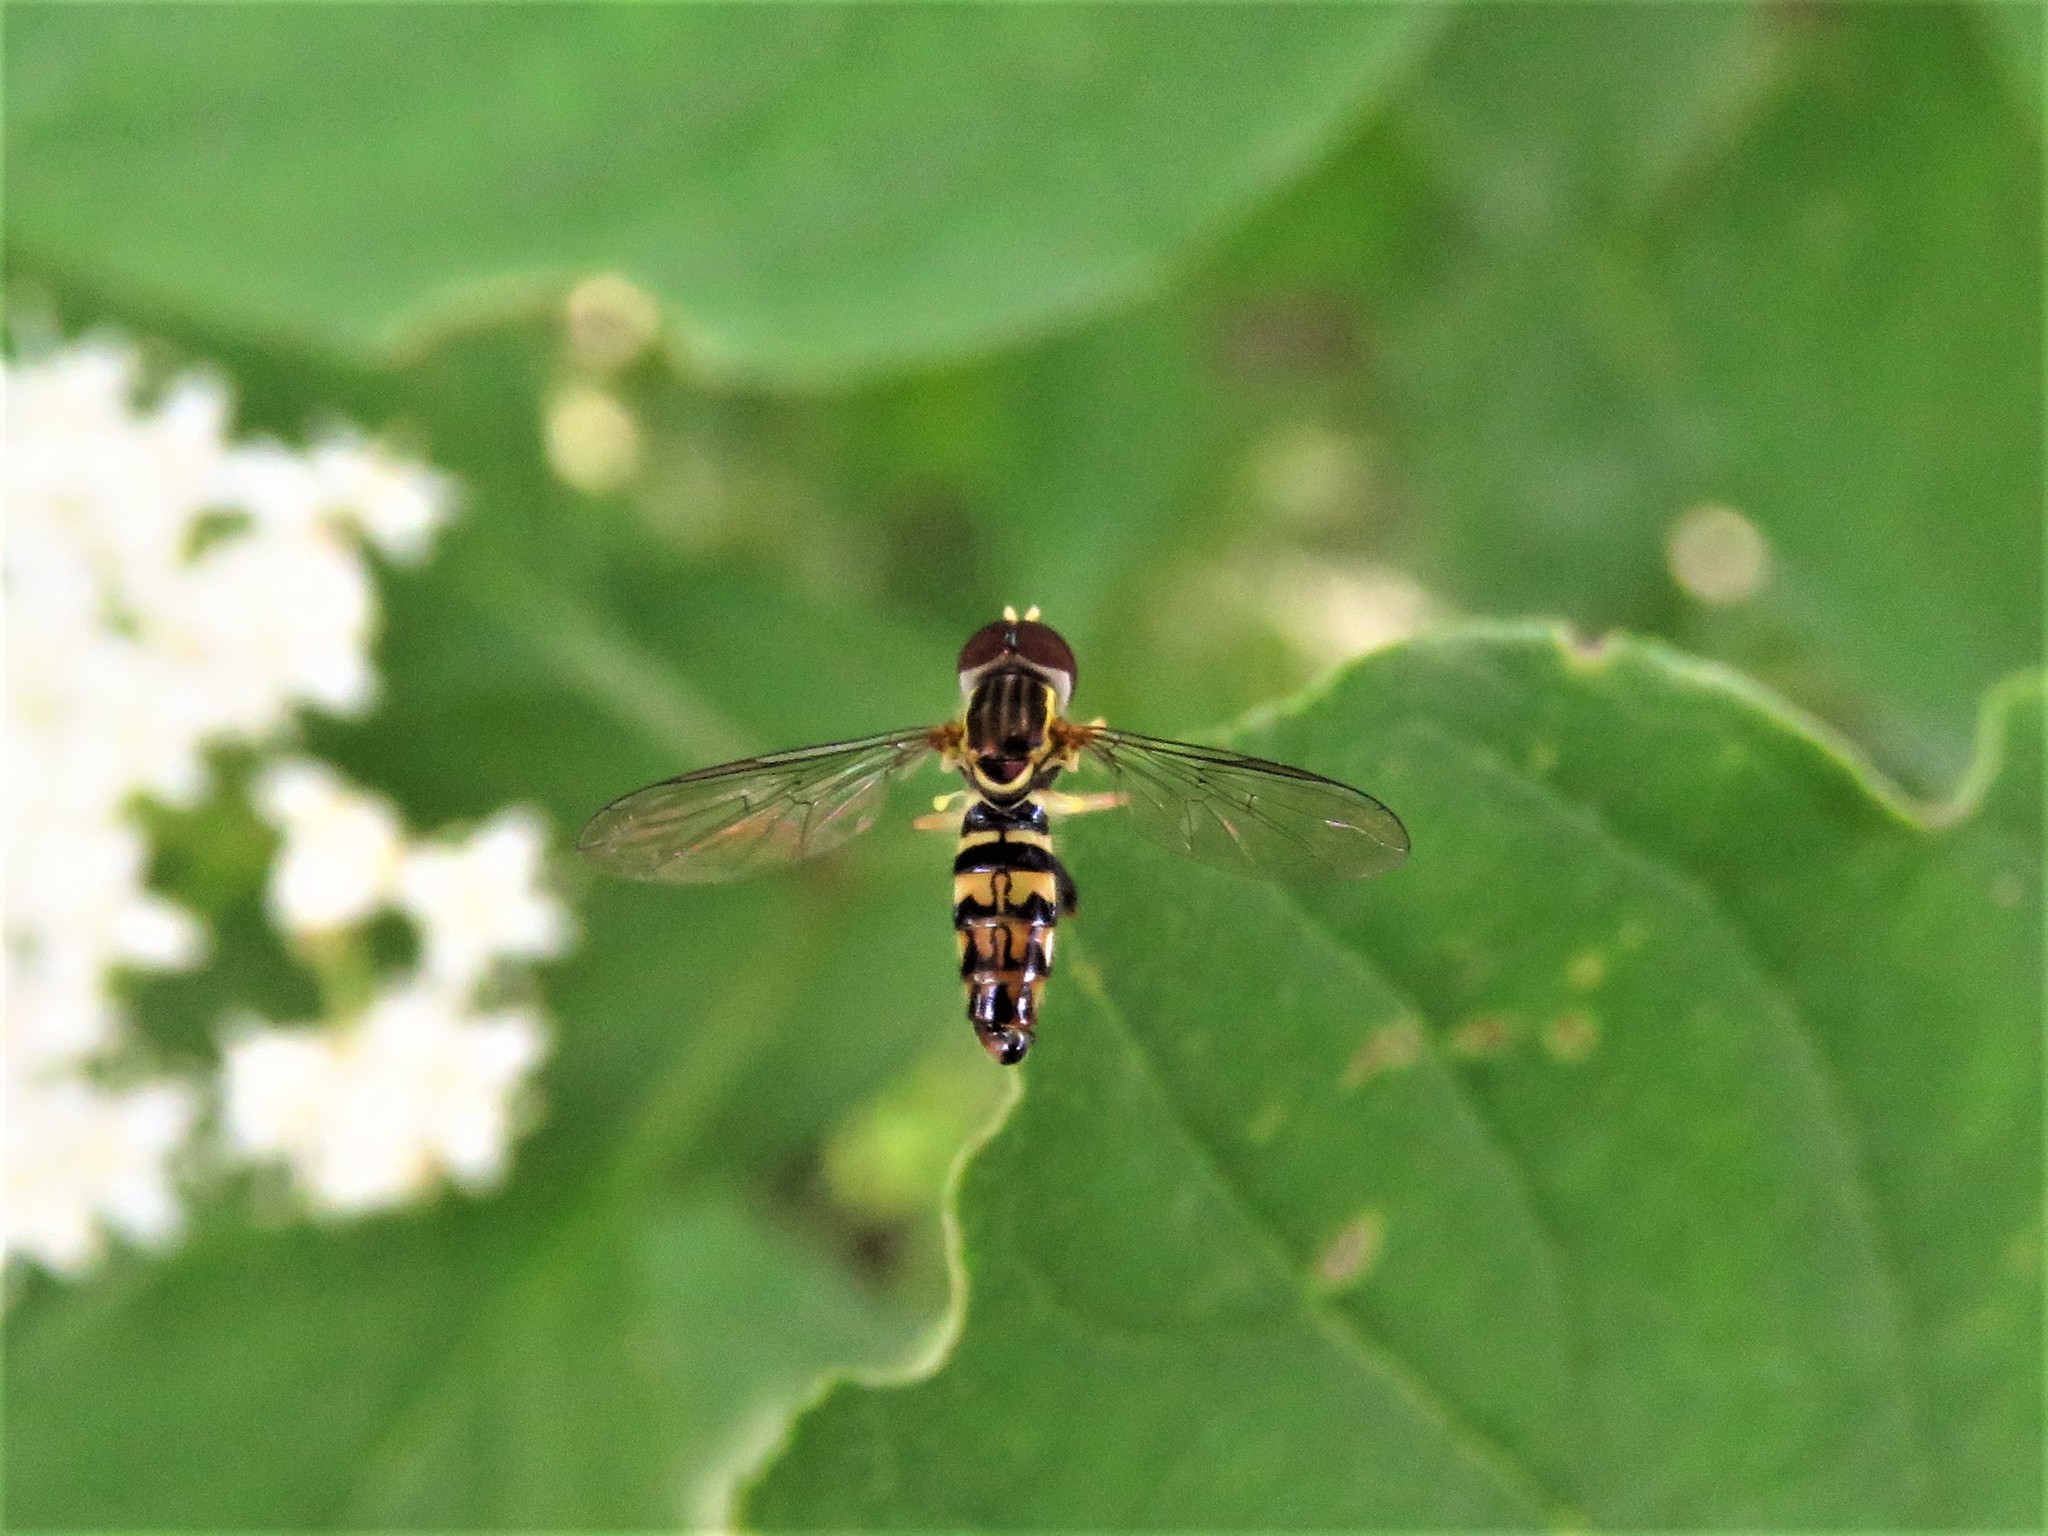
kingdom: Animalia
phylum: Arthropoda
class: Insecta
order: Diptera
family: Syrphidae
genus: Toxomerus
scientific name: Toxomerus geminatus
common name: Eastern calligrapher
